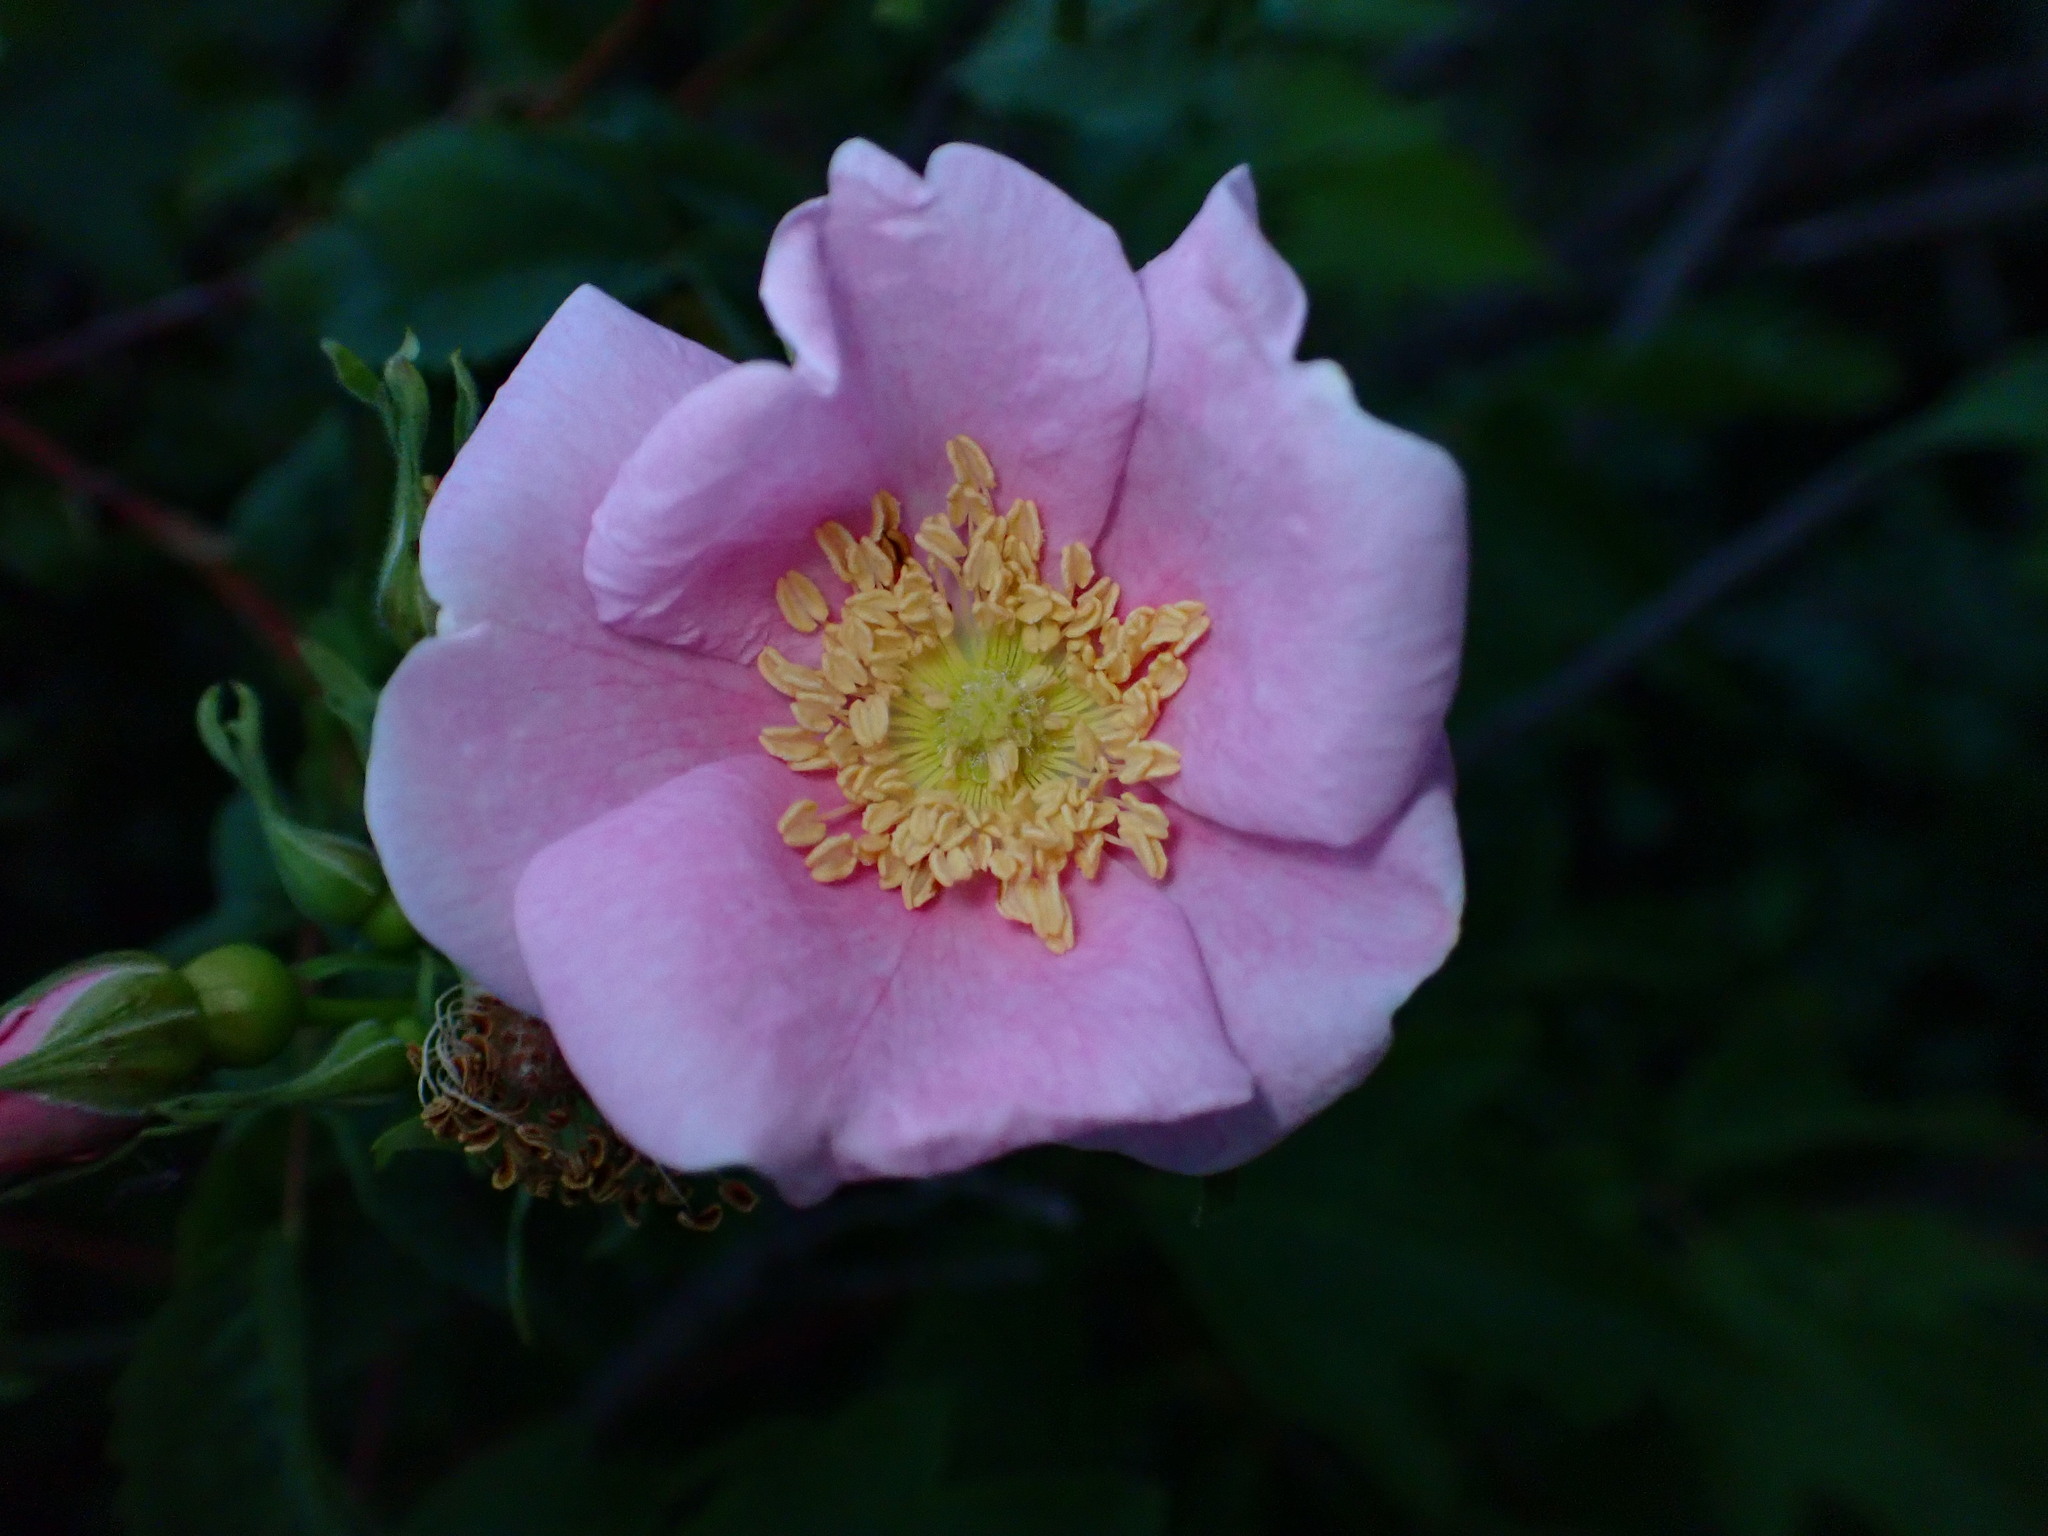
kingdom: Plantae
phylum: Tracheophyta
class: Magnoliopsida
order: Rosales
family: Rosaceae
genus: Rosa
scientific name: Rosa californica
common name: California rose
